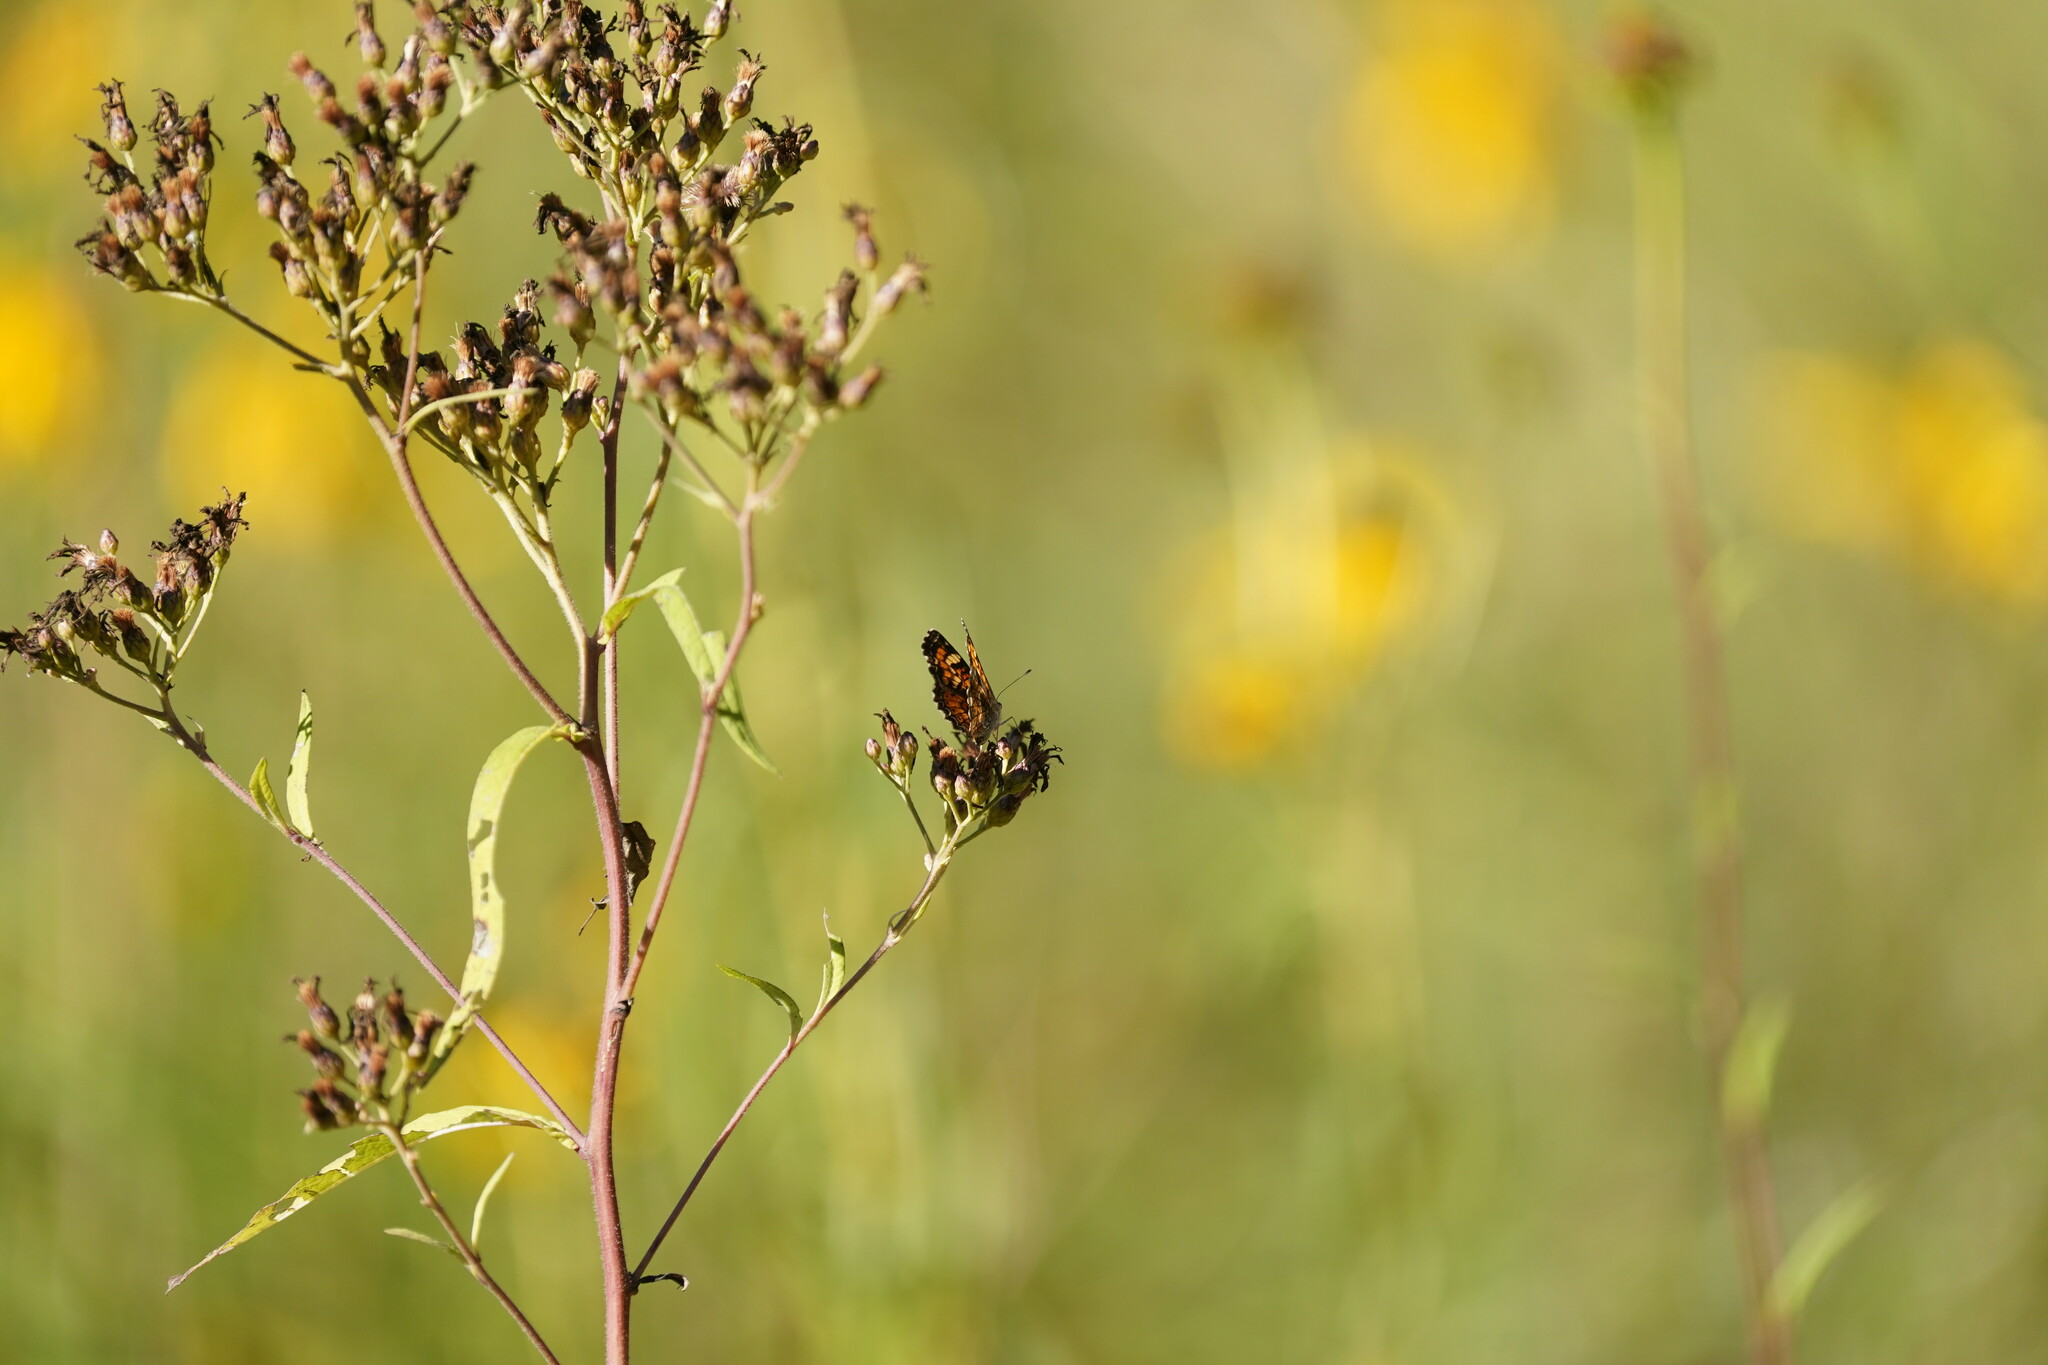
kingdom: Animalia
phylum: Arthropoda
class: Insecta
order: Lepidoptera
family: Nymphalidae
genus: Phyciodes
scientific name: Phyciodes phaon
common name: Phaon crescent
